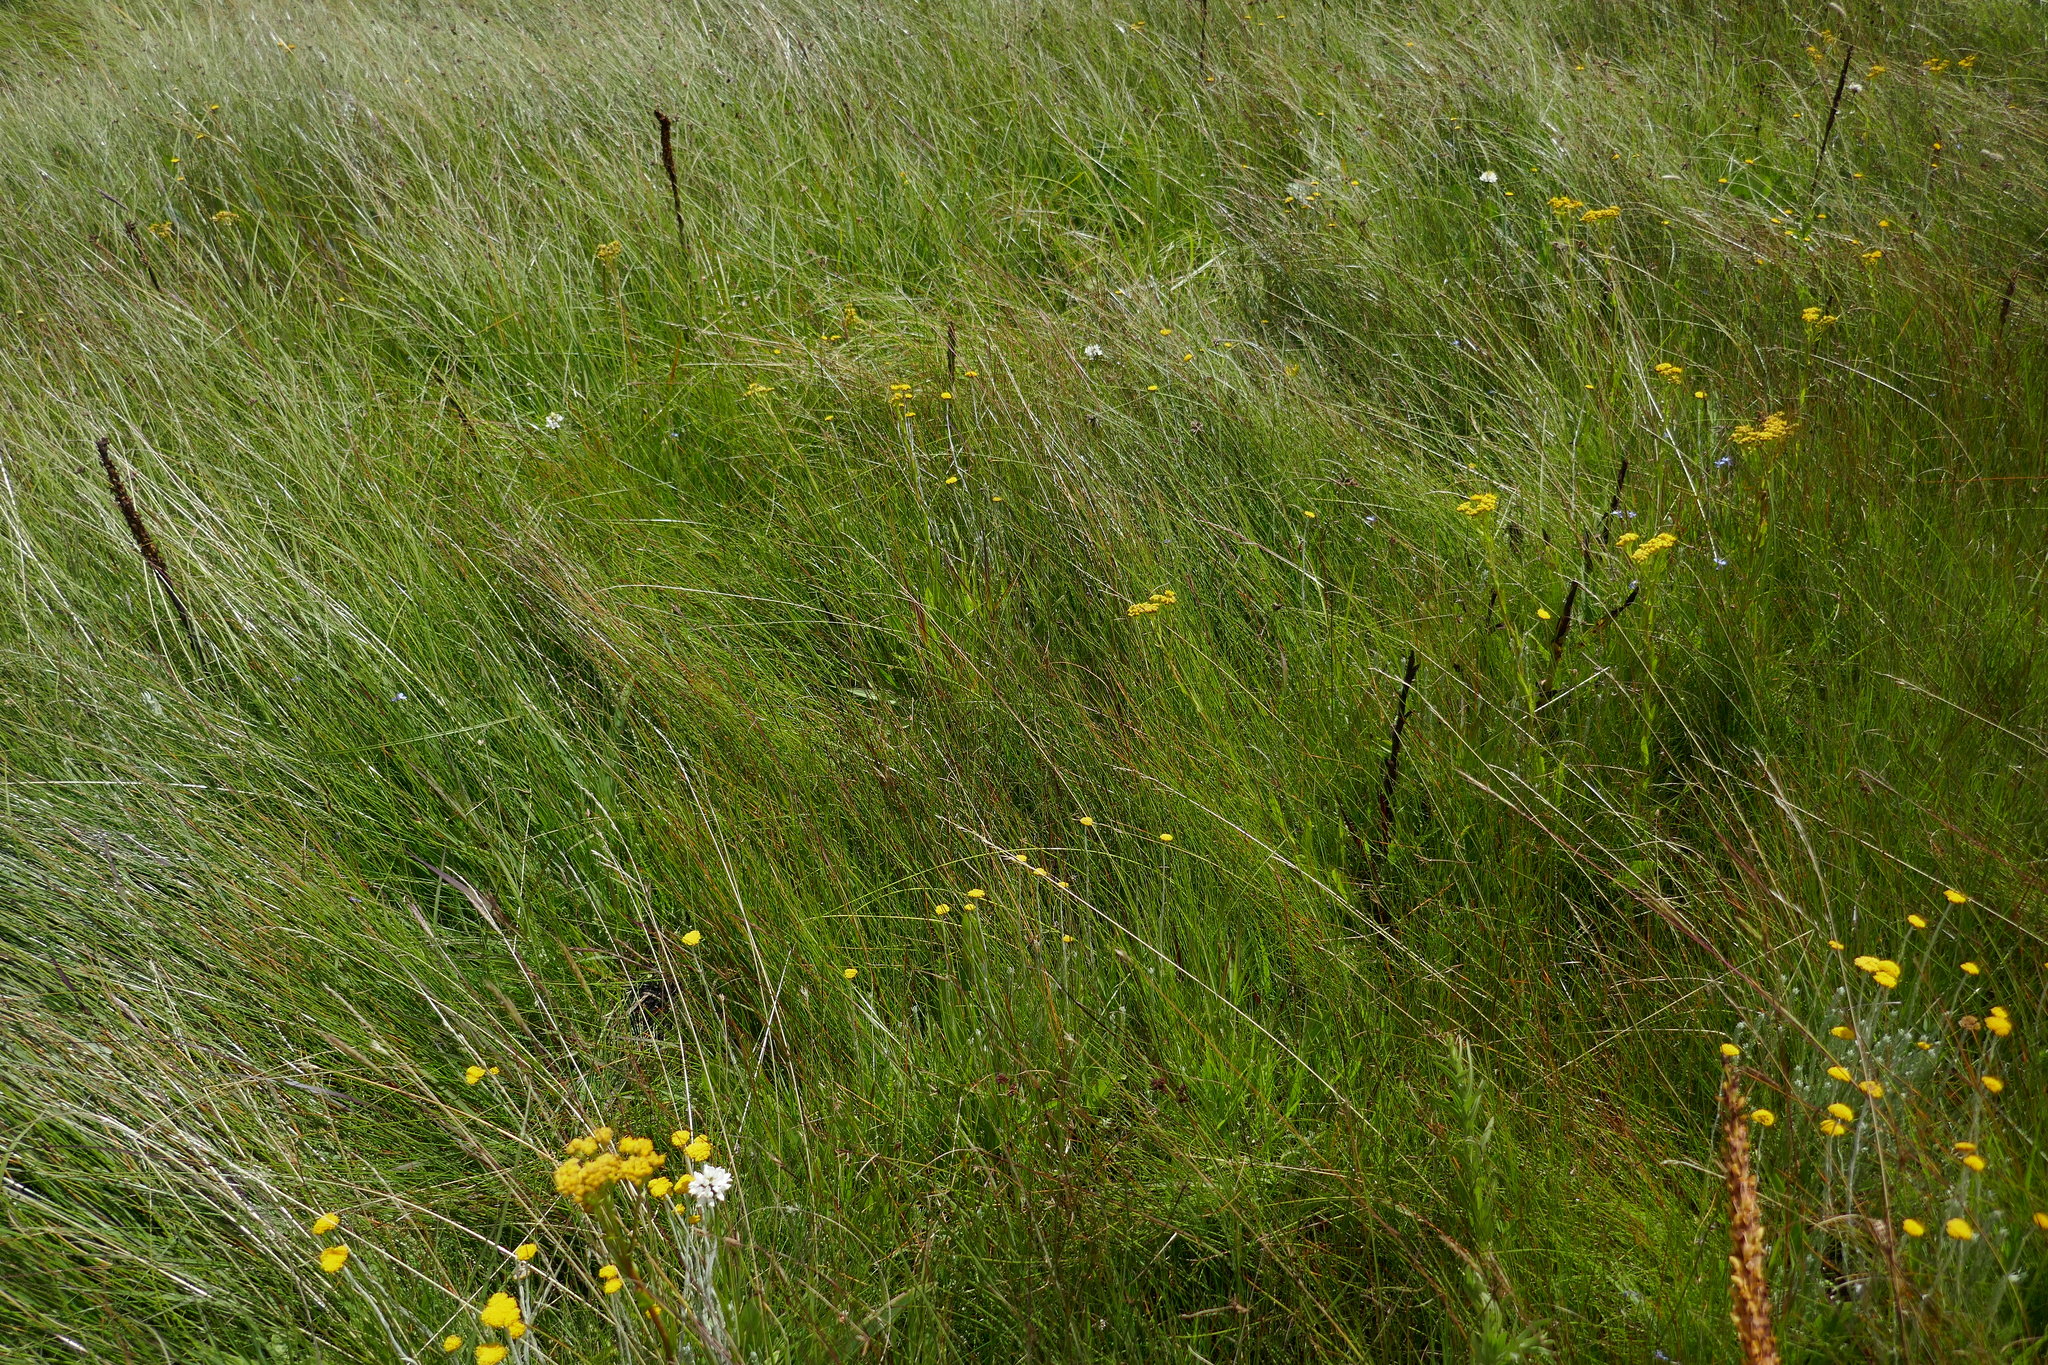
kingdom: Plantae
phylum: Tracheophyta
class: Liliopsida
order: Asparagales
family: Orchidaceae
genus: Disa
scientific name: Disa chrysostachya
